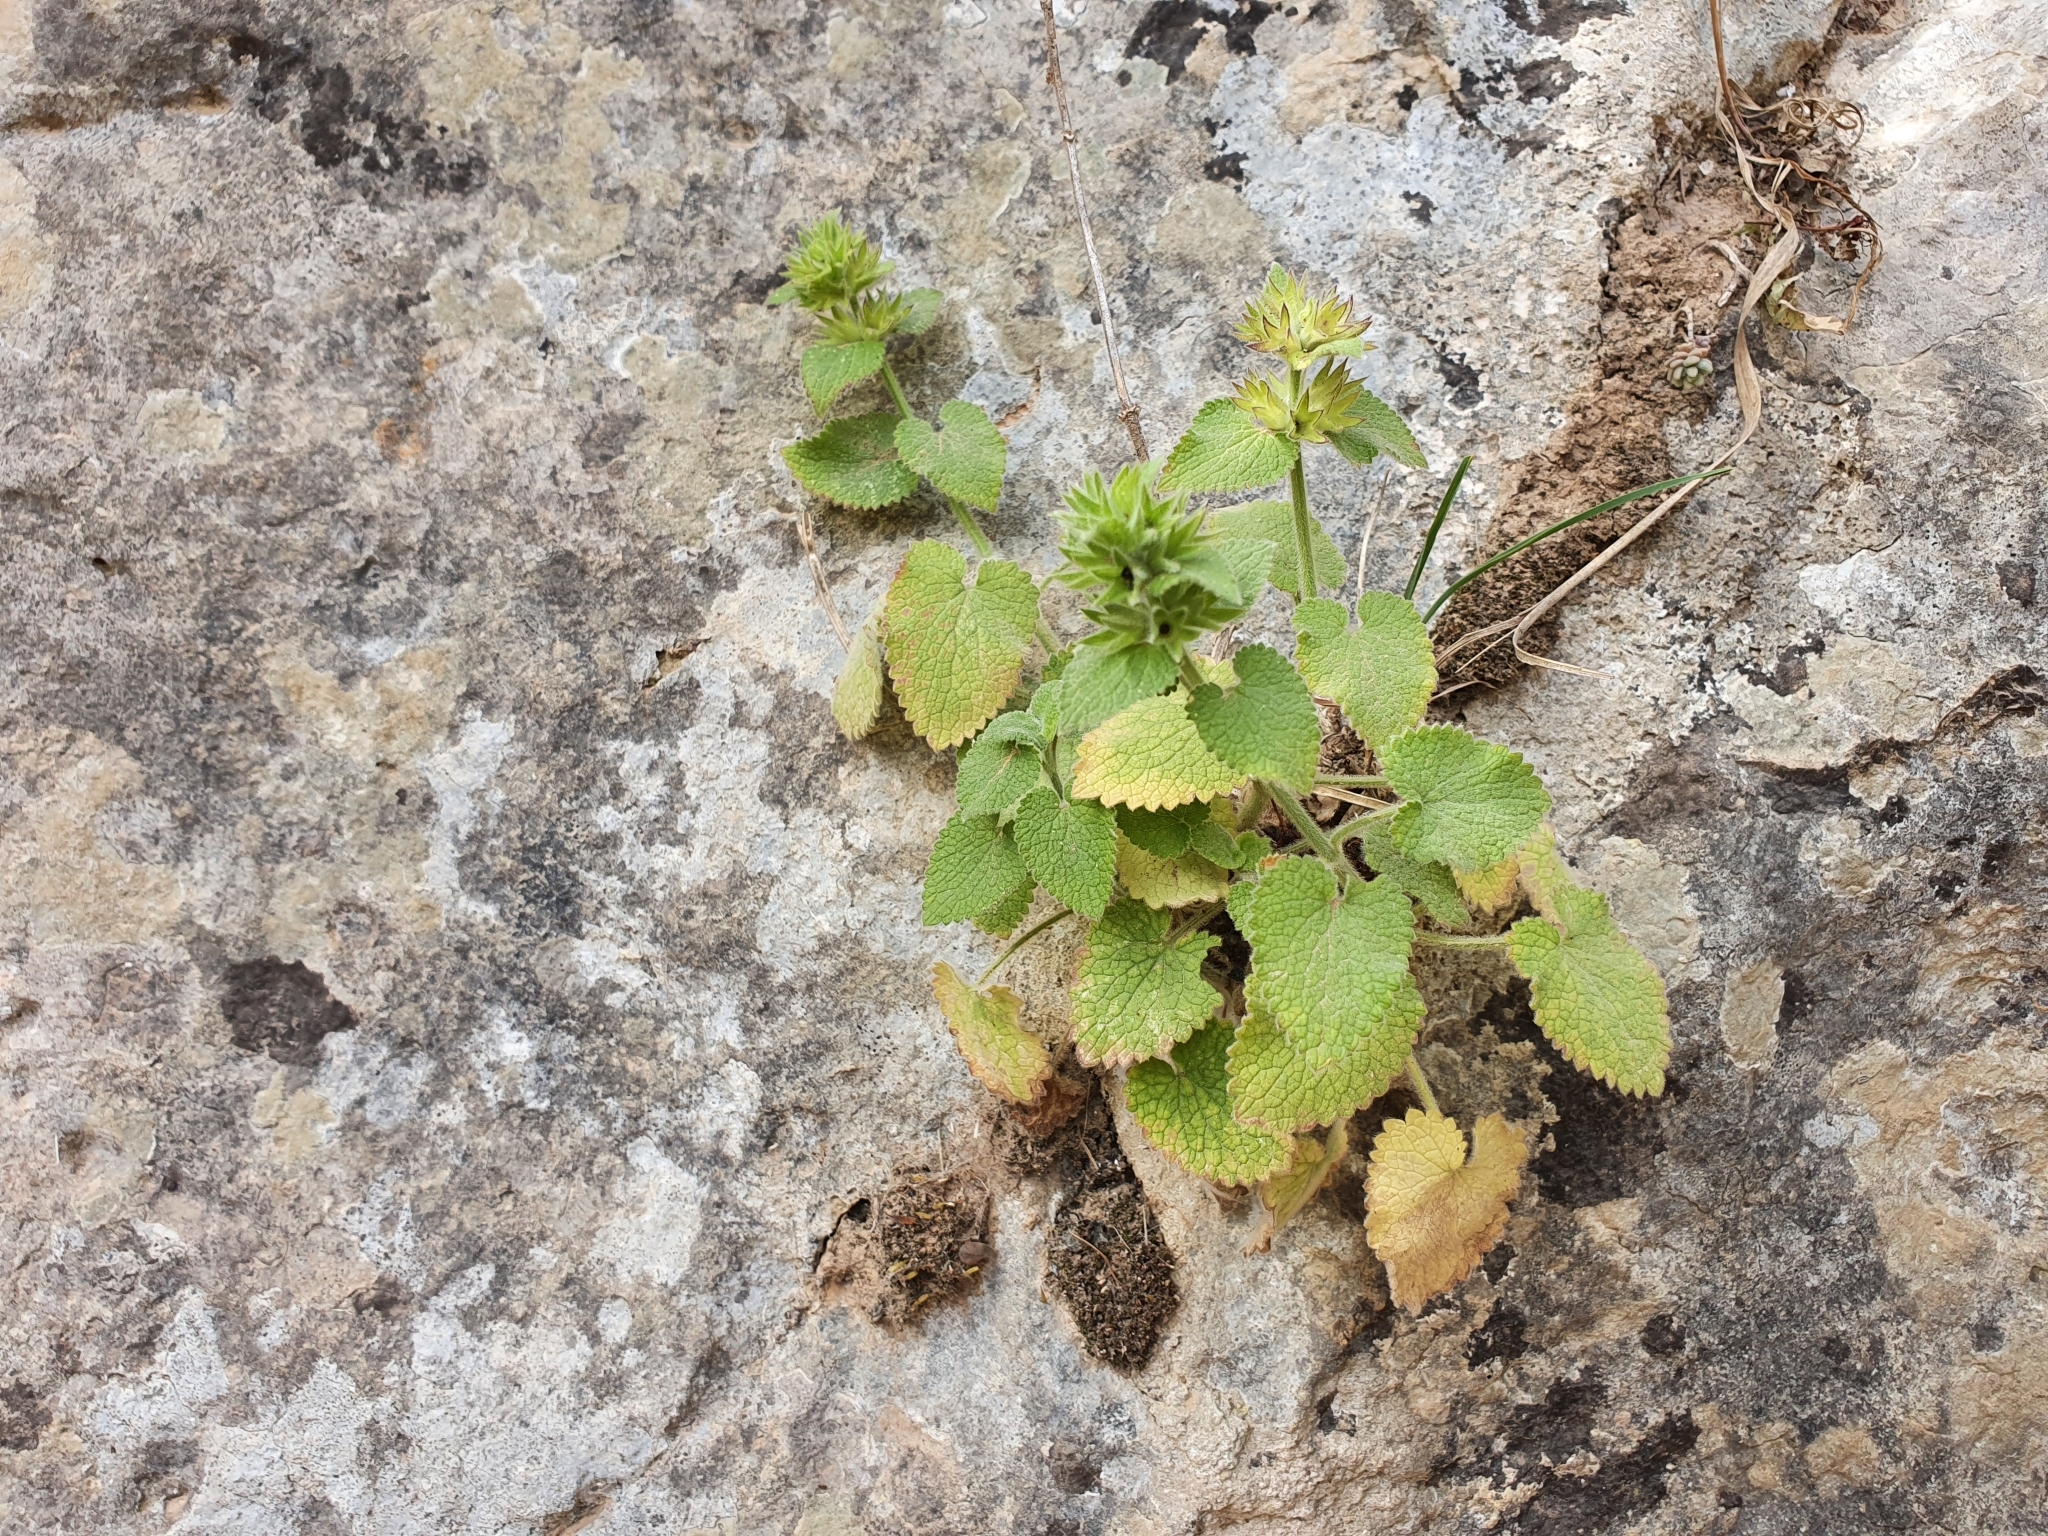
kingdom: Plantae
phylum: Tracheophyta
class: Magnoliopsida
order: Lamiales
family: Lamiaceae
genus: Stachys
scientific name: Stachys circinata
